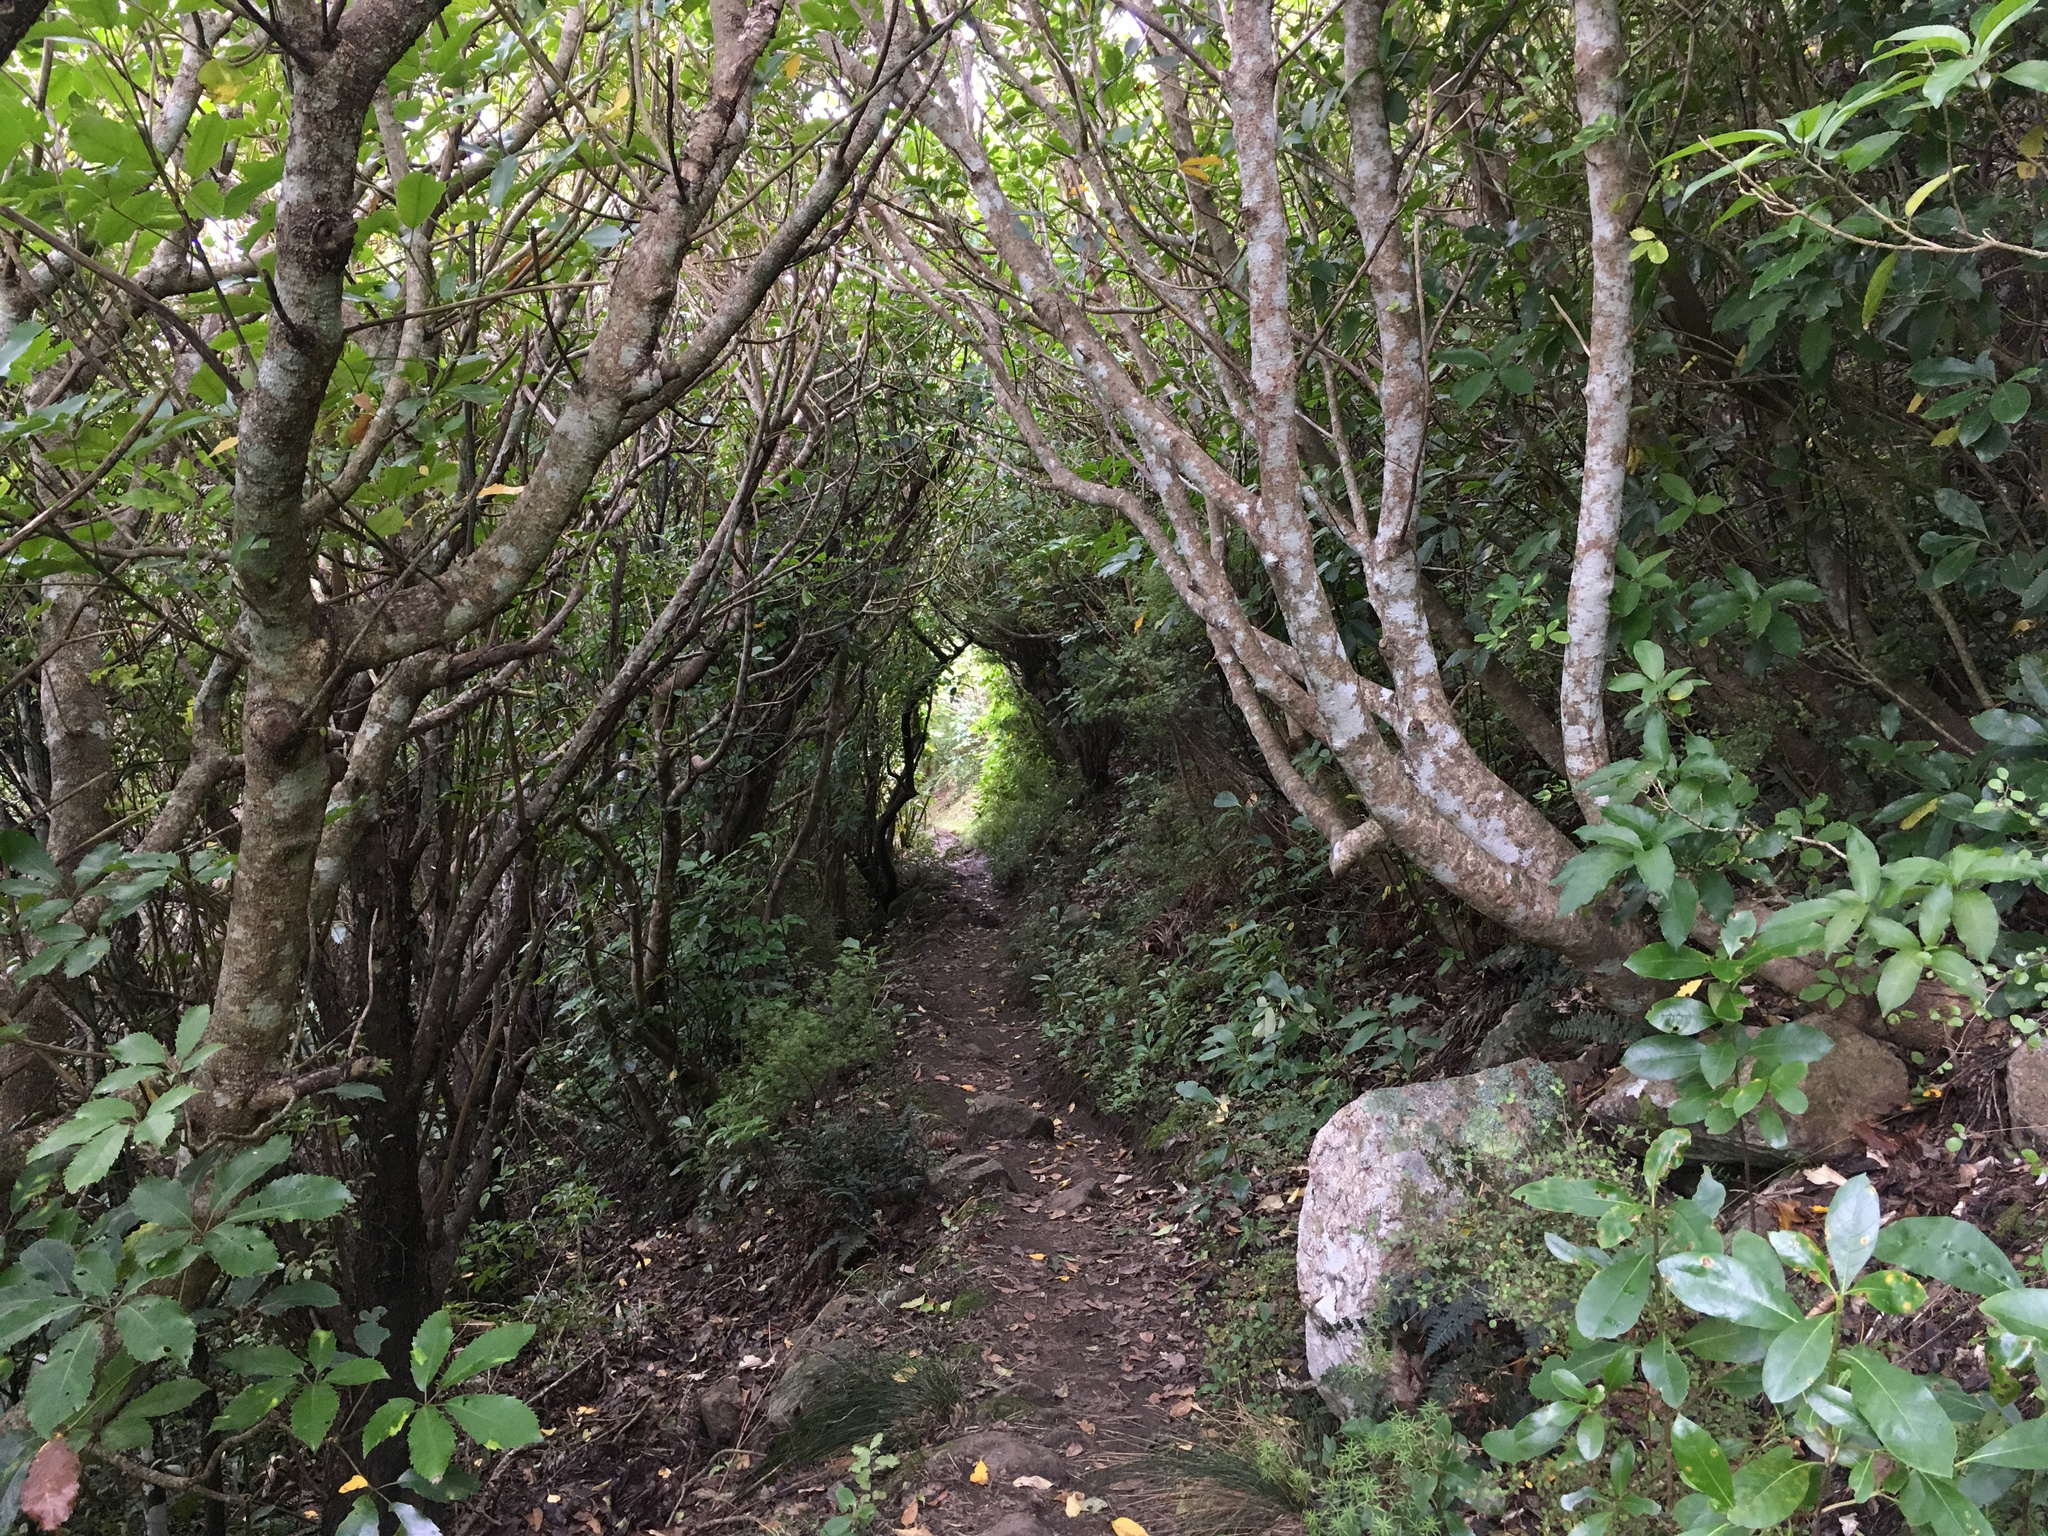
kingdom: Plantae
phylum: Tracheophyta
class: Magnoliopsida
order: Apiales
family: Araliaceae
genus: Neopanax
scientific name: Neopanax arboreus
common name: Five-fingers
